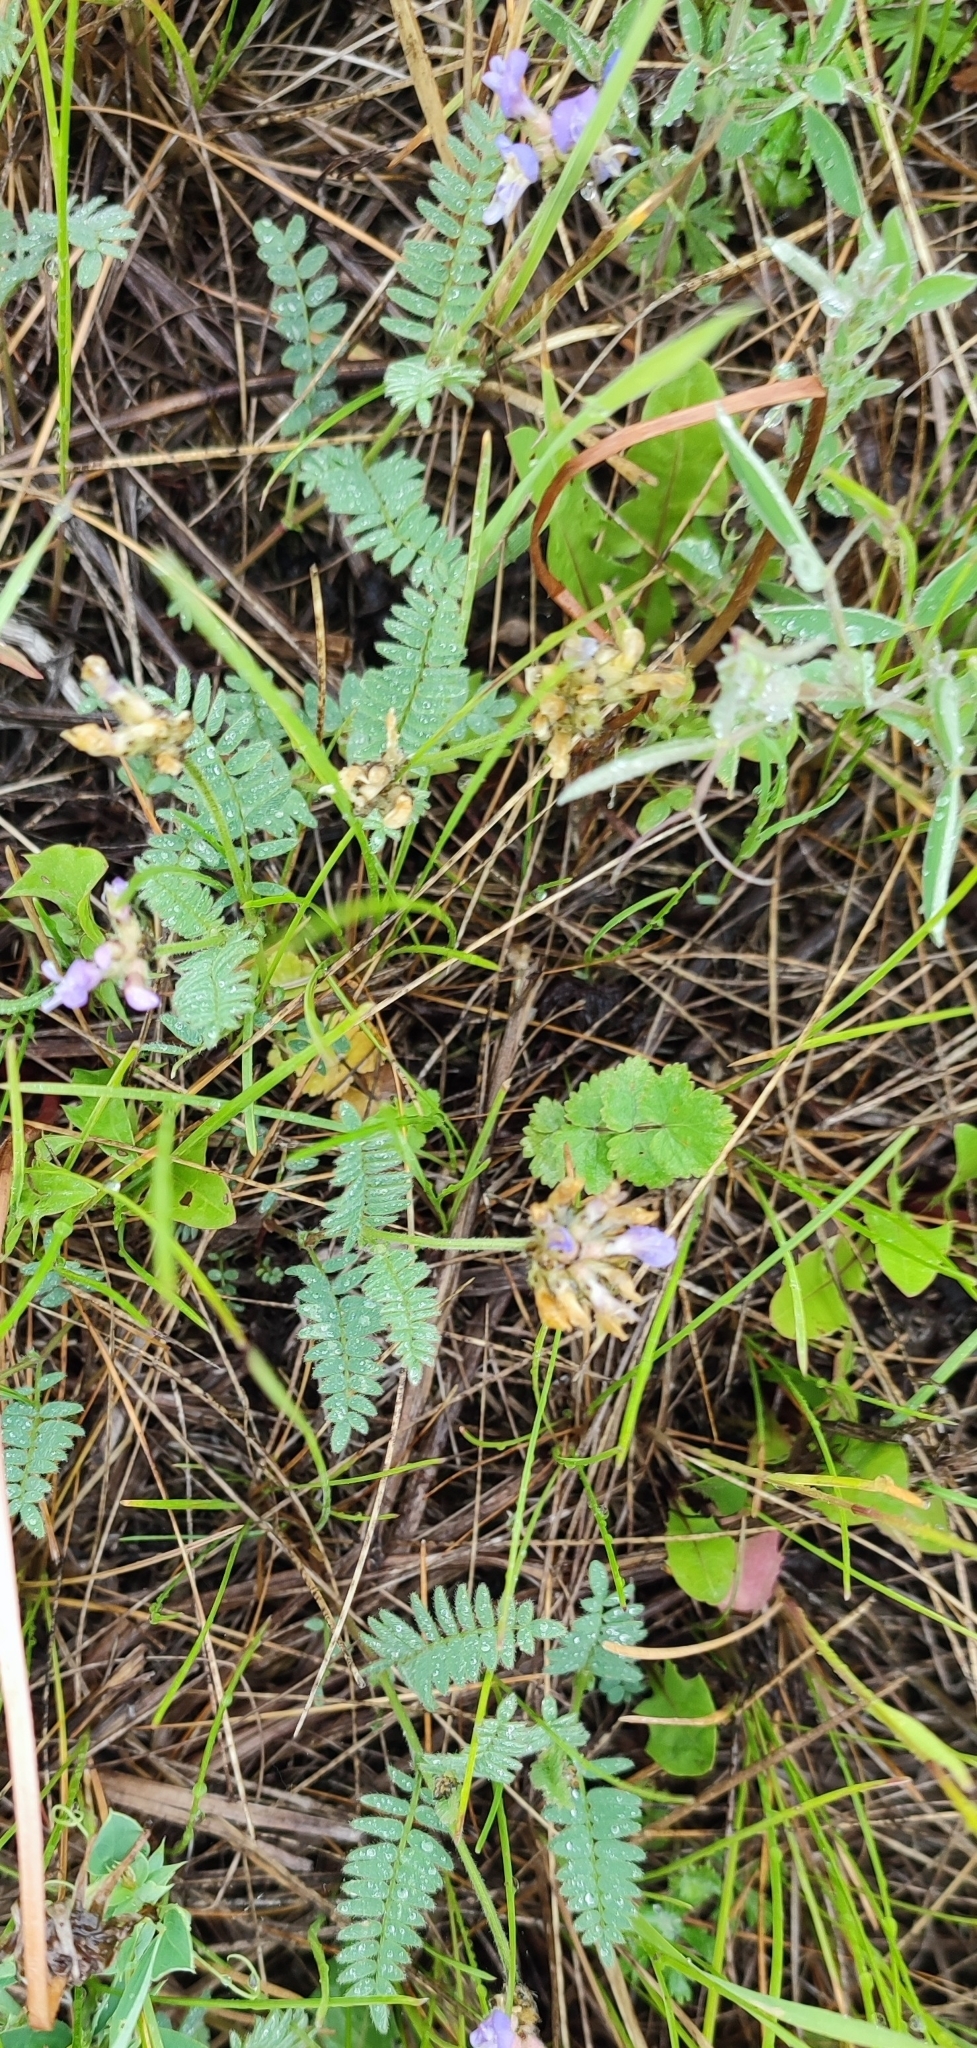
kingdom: Plantae
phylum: Tracheophyta
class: Magnoliopsida
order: Fabales
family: Fabaceae
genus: Astragalus
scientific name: Astragalus danicus
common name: Purple milk-vetch
